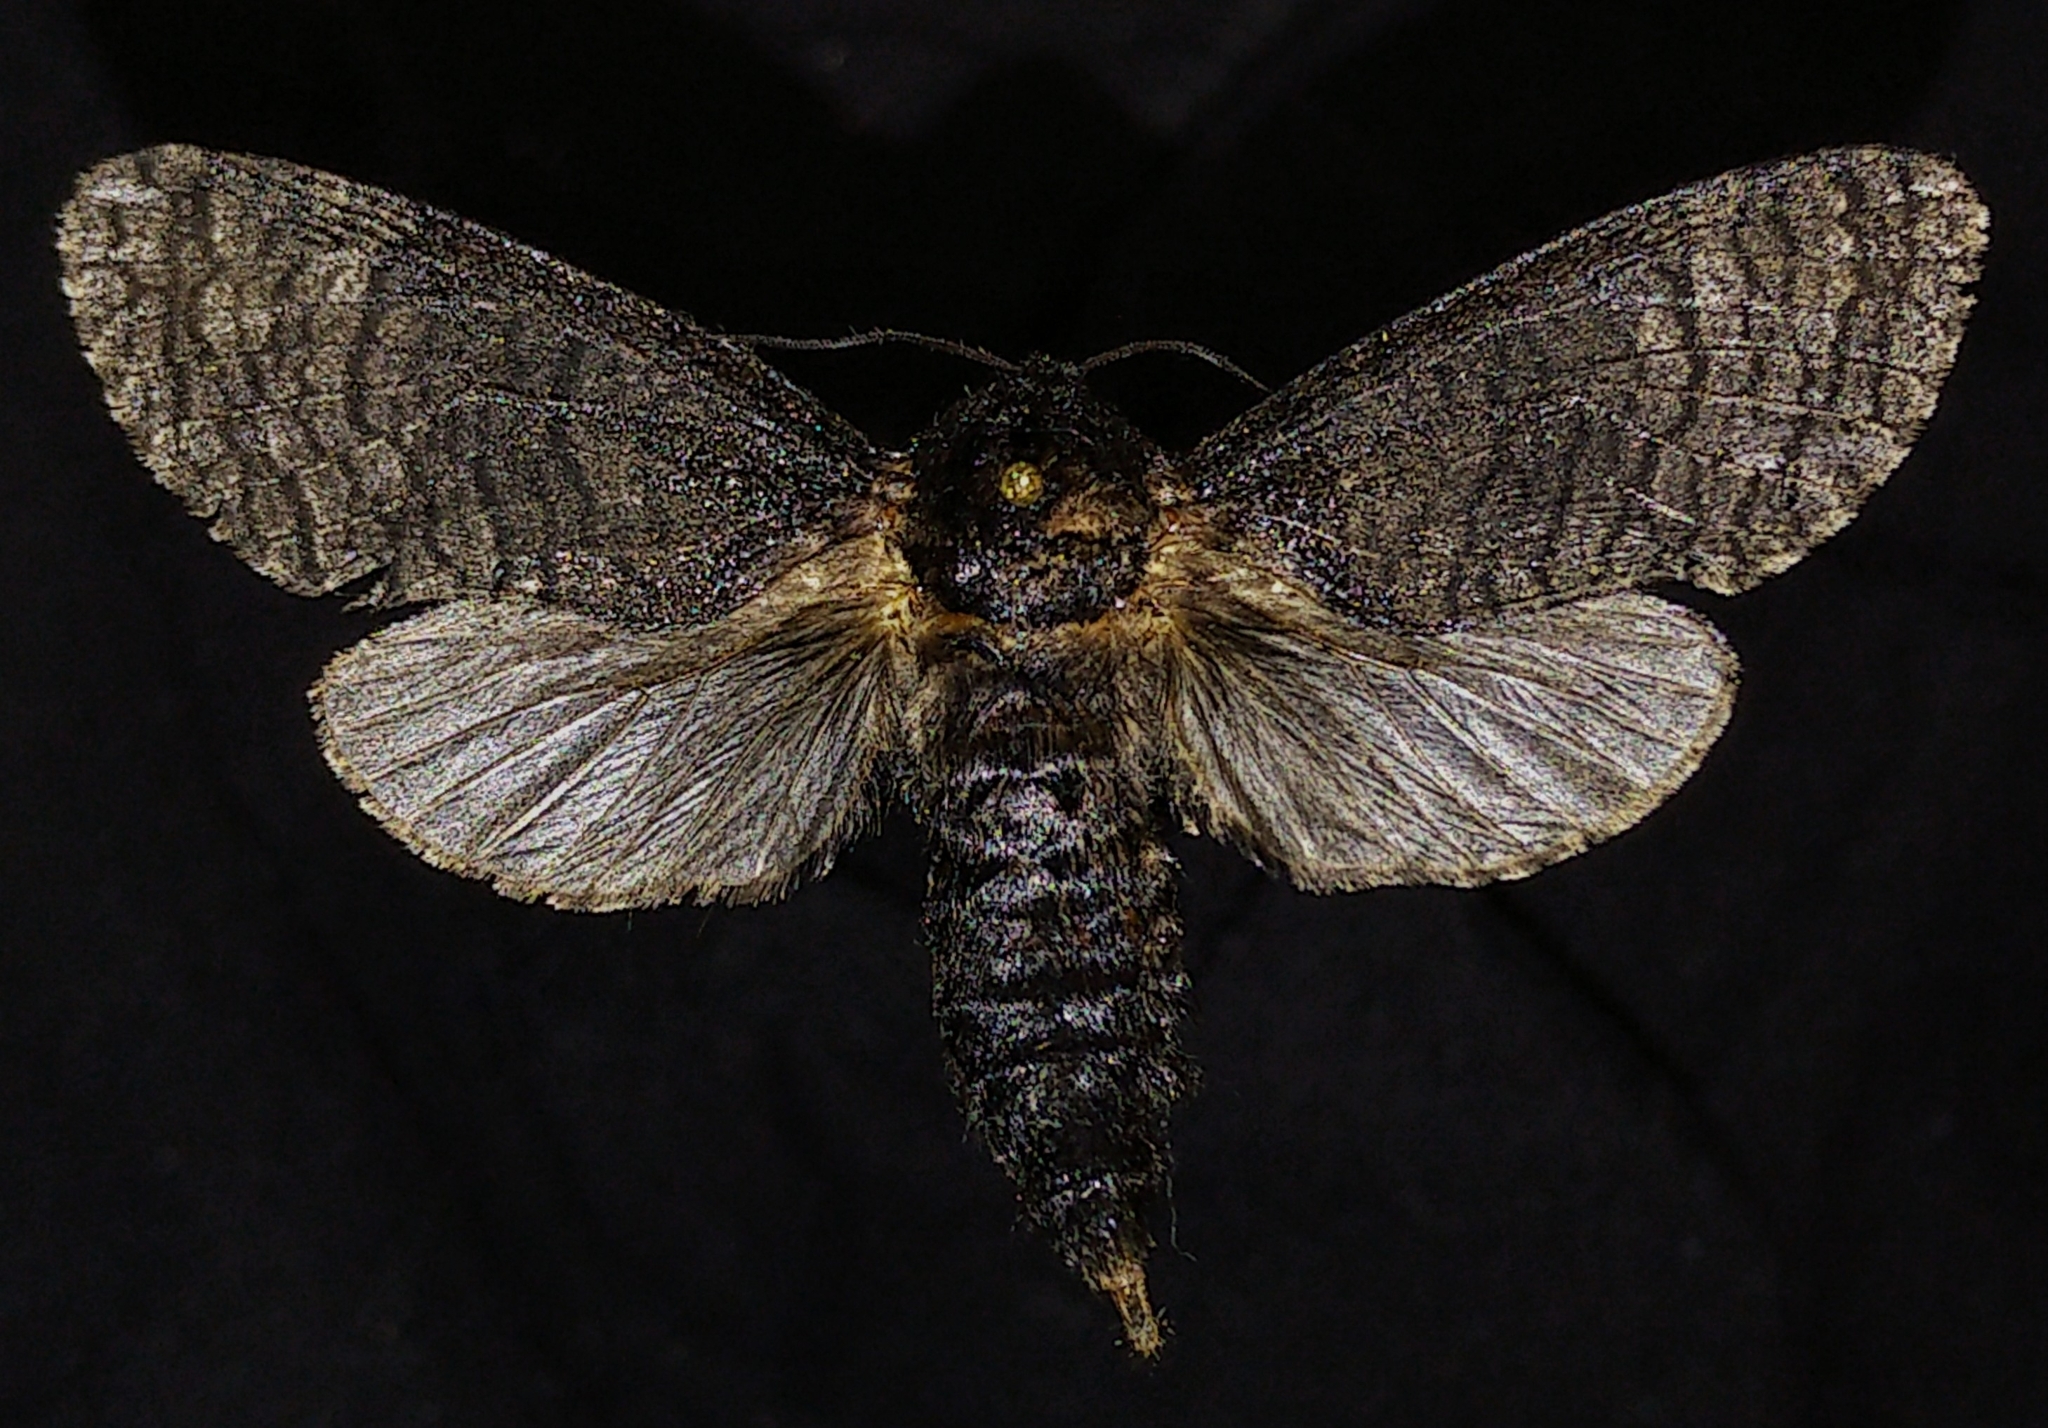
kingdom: Animalia
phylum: Arthropoda
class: Insecta
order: Lepidoptera
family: Cossidae
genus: Acossus
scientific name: Acossus centerensis
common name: Poplar carpenterworm moth
